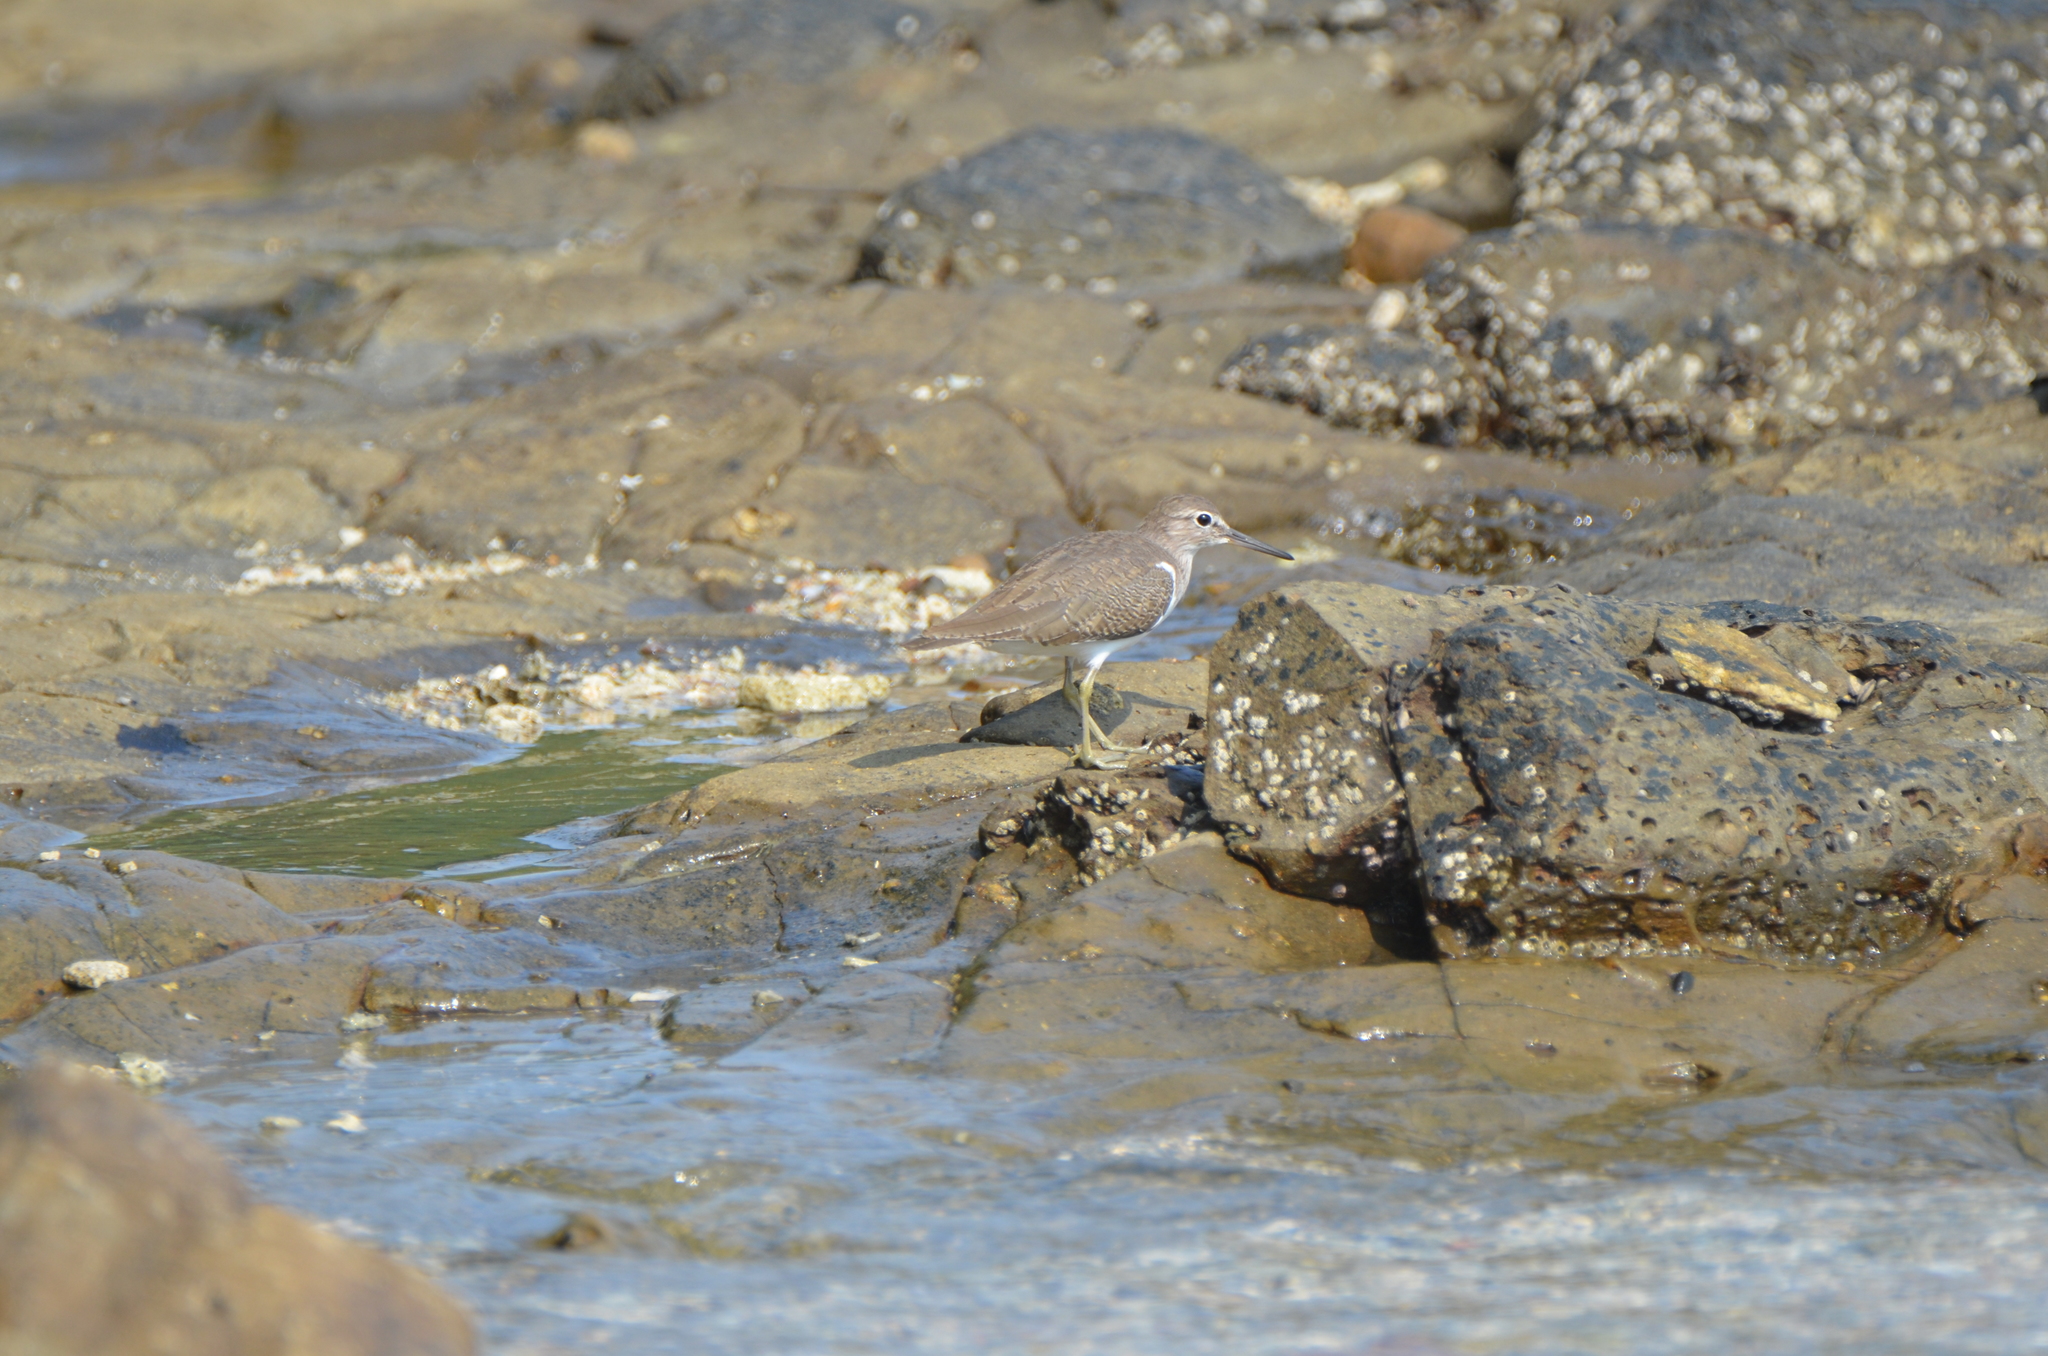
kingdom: Animalia
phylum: Chordata
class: Aves
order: Charadriiformes
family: Scolopacidae
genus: Actitis
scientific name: Actitis hypoleucos
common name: Common sandpiper
